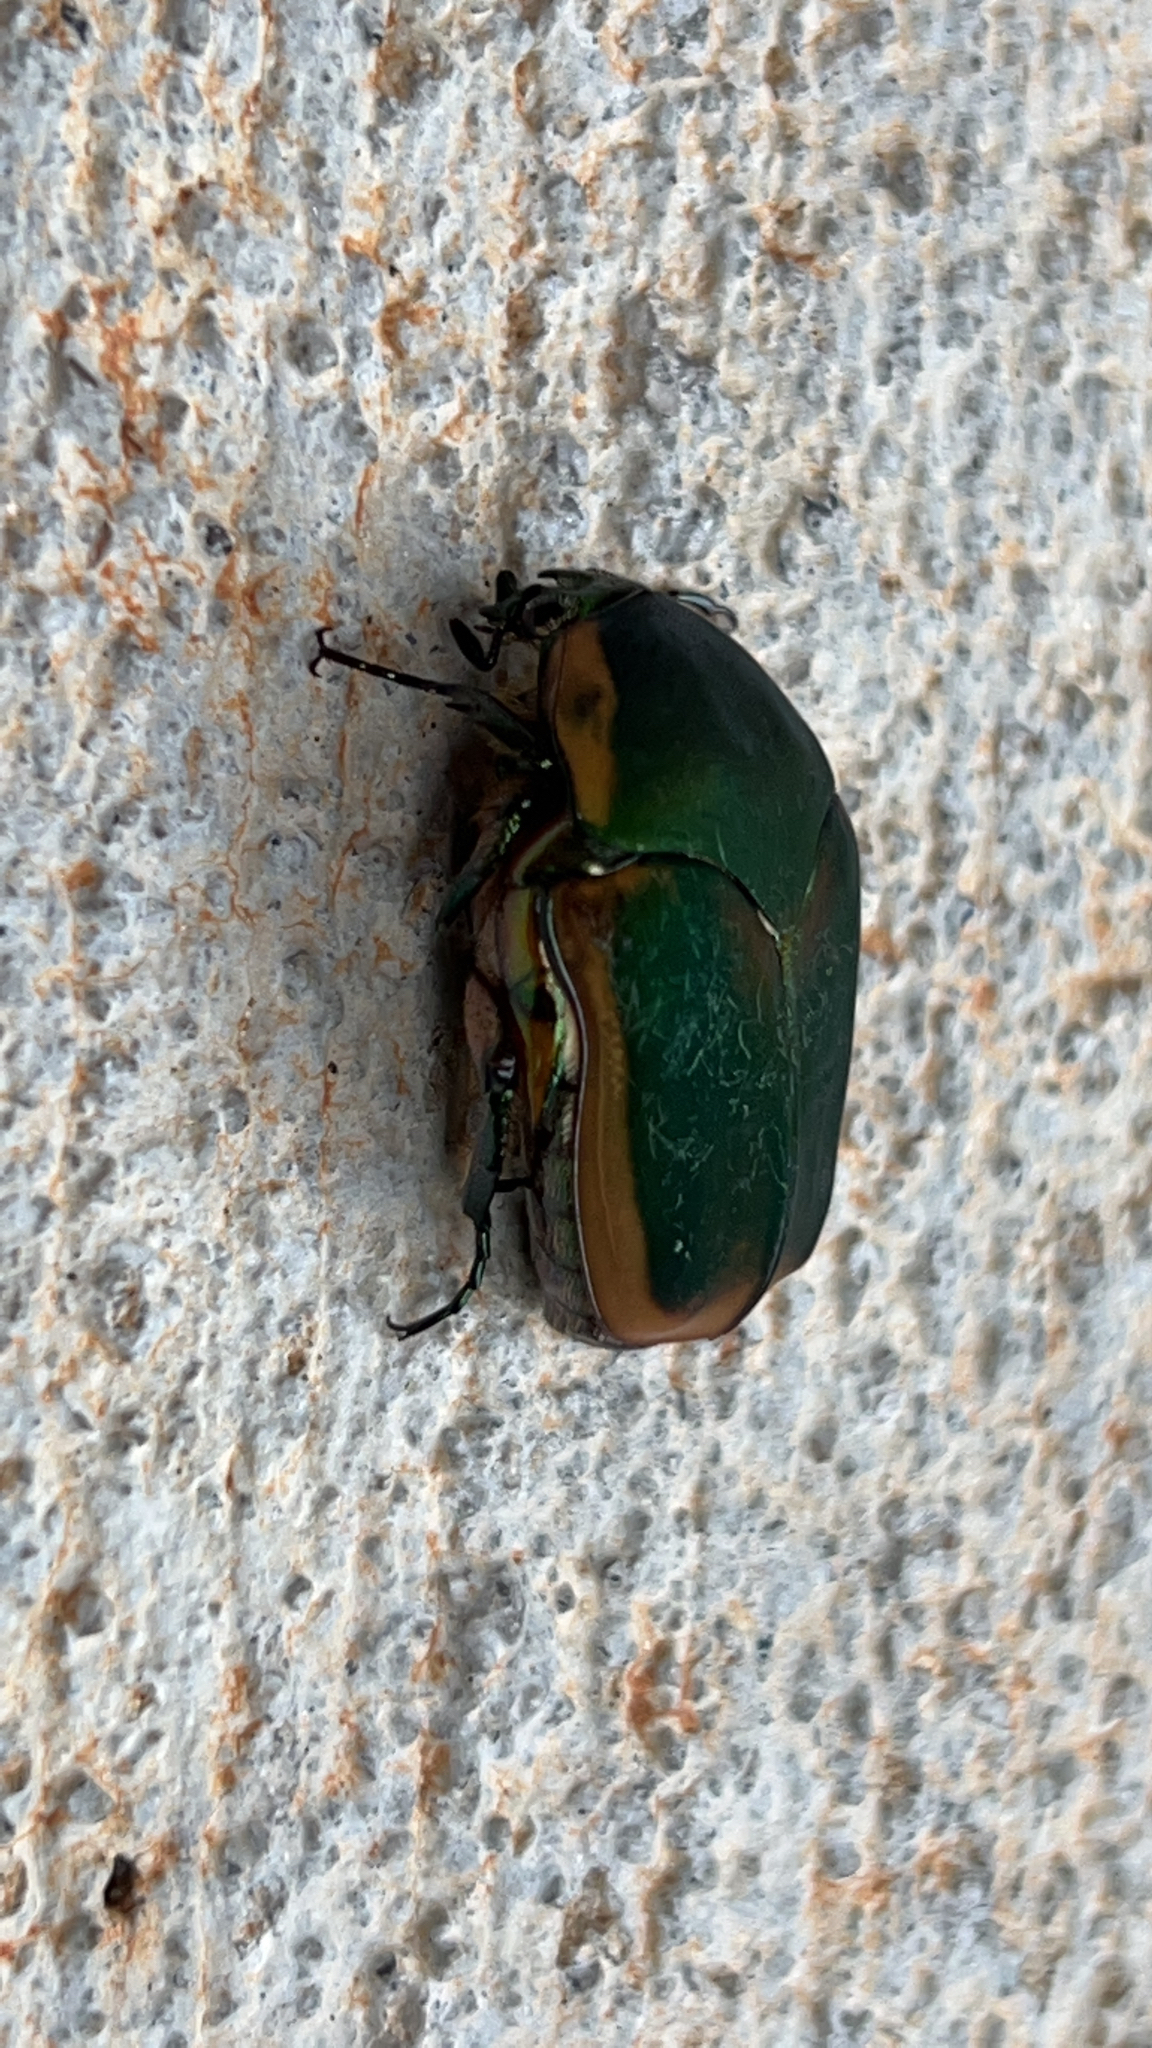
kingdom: Animalia
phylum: Arthropoda
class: Insecta
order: Coleoptera
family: Scarabaeidae
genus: Cotinis
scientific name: Cotinis nitida
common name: Common green june beetle
